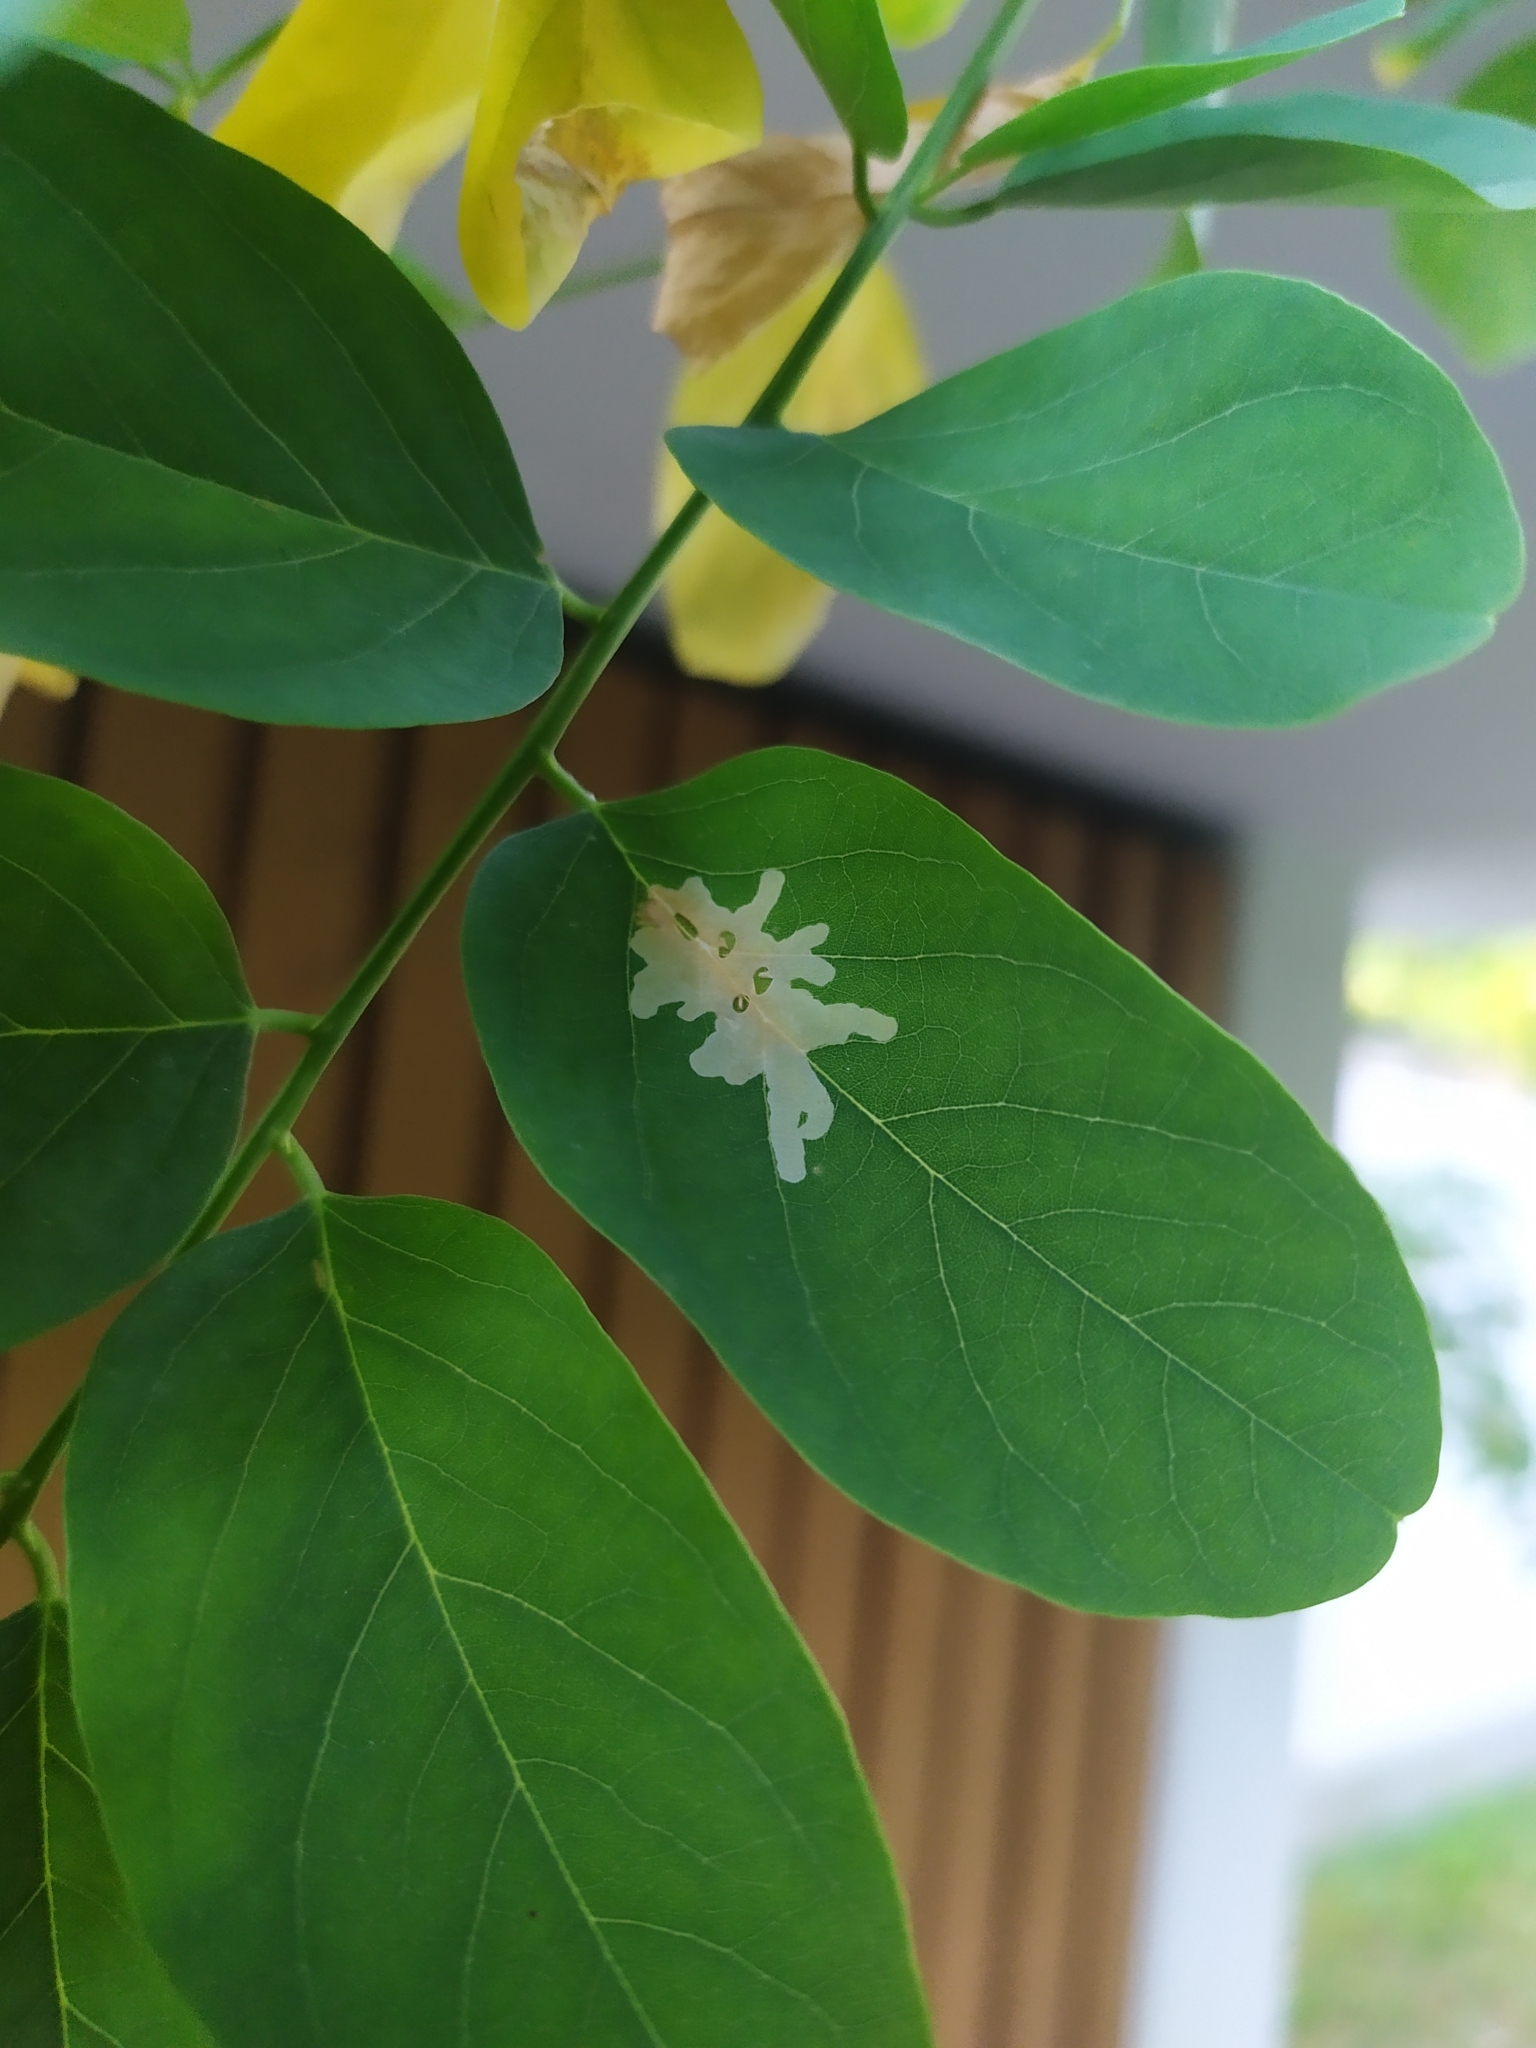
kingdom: Animalia
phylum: Arthropoda
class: Insecta
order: Lepidoptera
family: Gracillariidae
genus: Parectopa
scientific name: Parectopa robiniella
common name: Locust digitate leafminer
